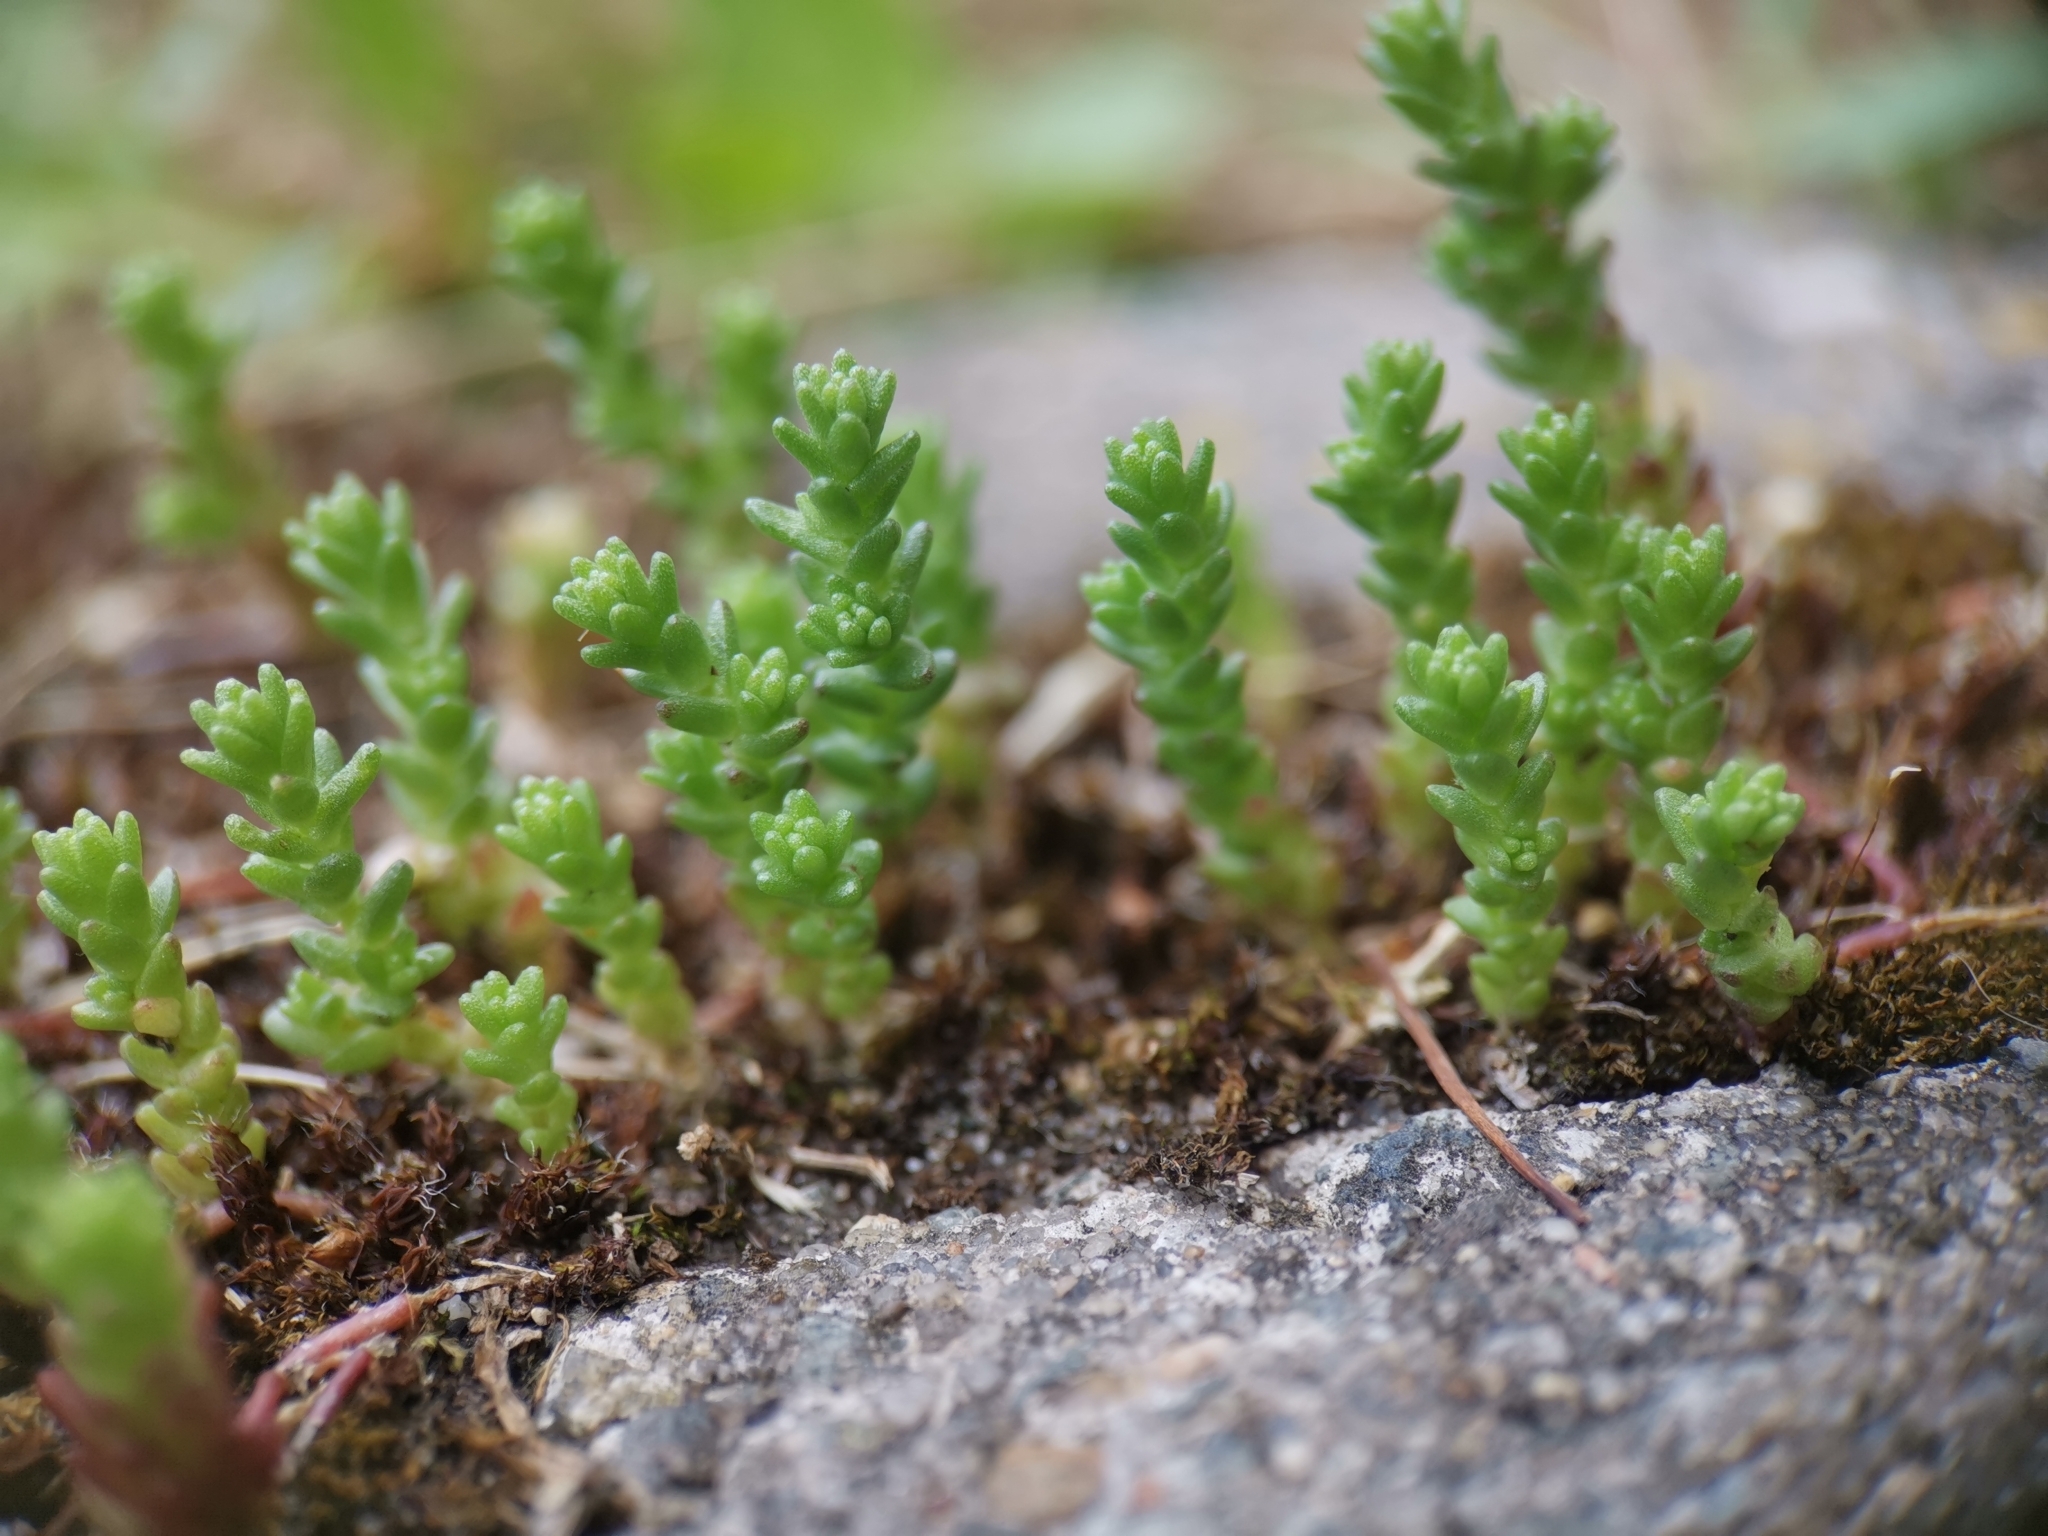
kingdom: Plantae
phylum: Tracheophyta
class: Magnoliopsida
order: Saxifragales
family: Crassulaceae
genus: Sedum
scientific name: Sedum acre
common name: Biting stonecrop
